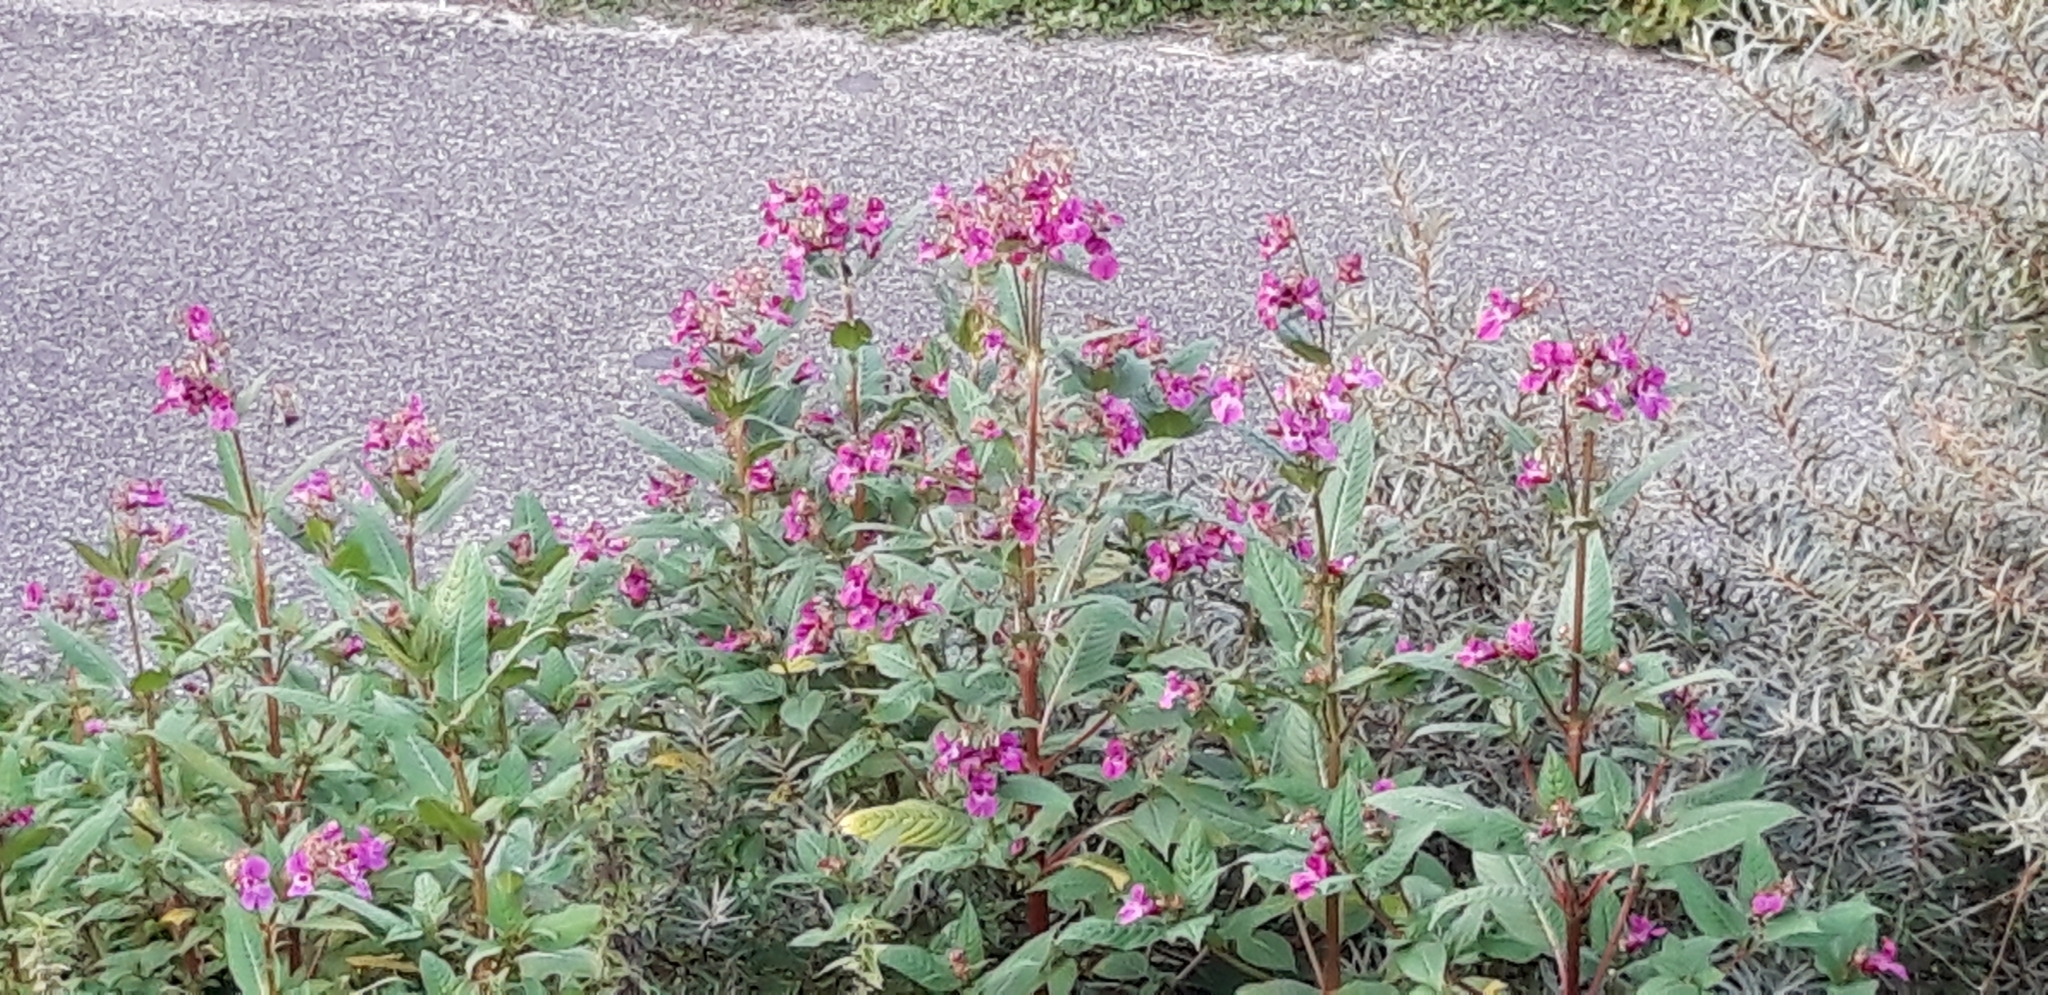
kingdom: Plantae
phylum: Tracheophyta
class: Magnoliopsida
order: Ericales
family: Balsaminaceae
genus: Impatiens
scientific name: Impatiens glandulifera
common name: Himalayan balsam
